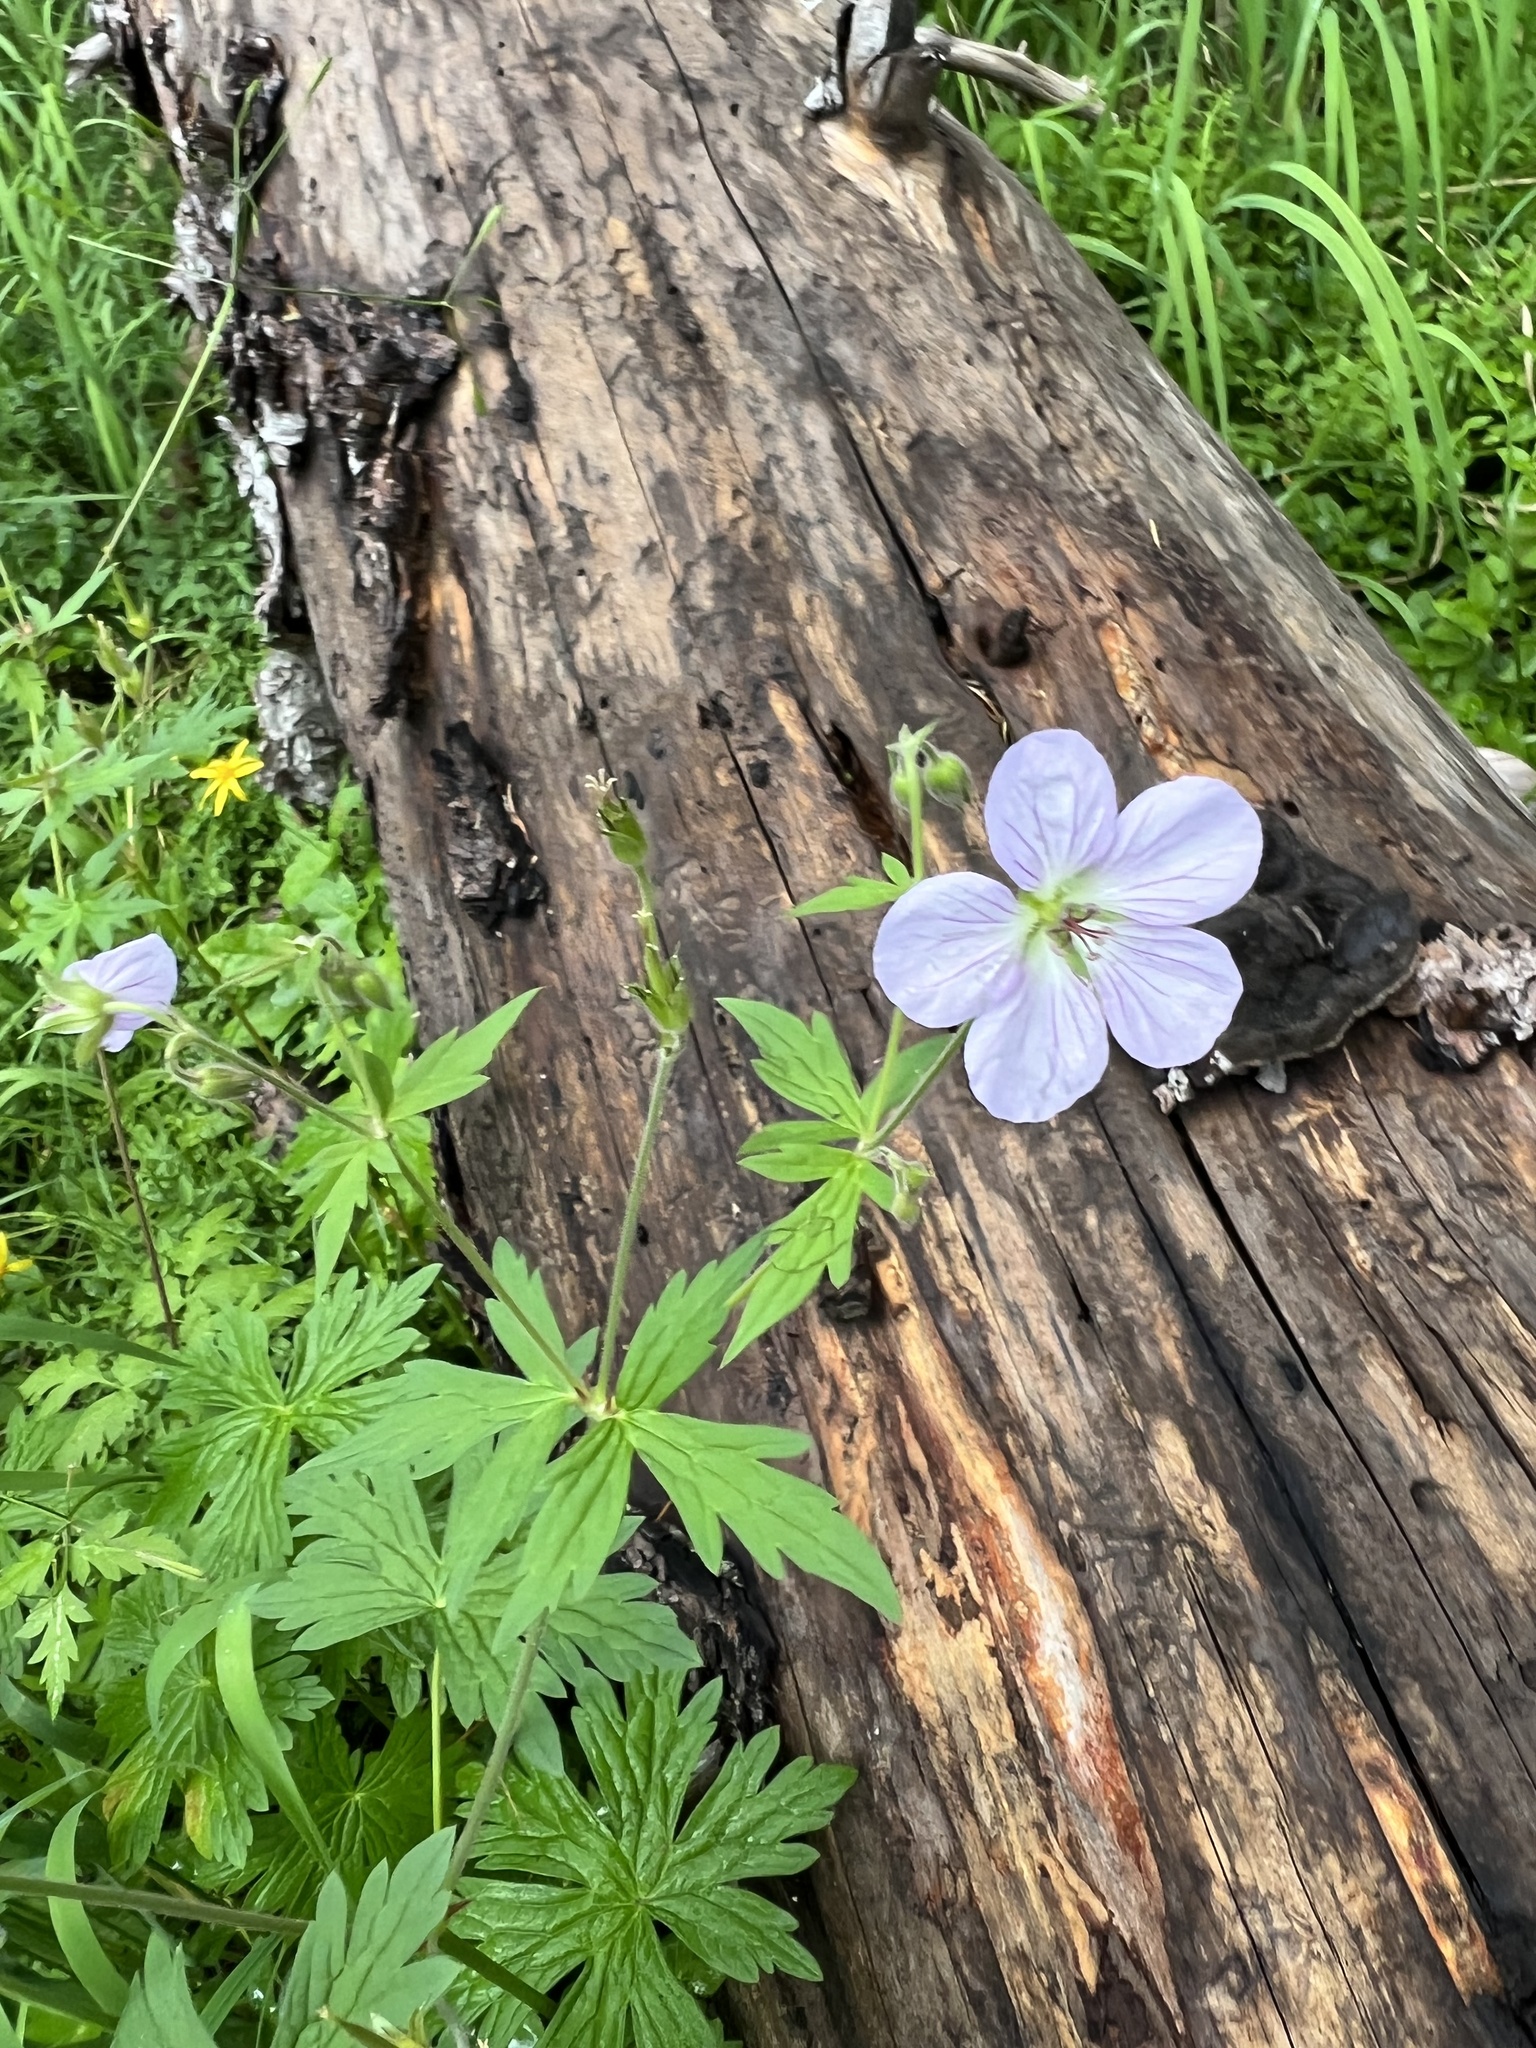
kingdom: Plantae
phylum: Tracheophyta
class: Magnoliopsida
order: Geraniales
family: Geraniaceae
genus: Geranium
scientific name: Geranium richardsonii
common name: Richardson's crane's-bill
